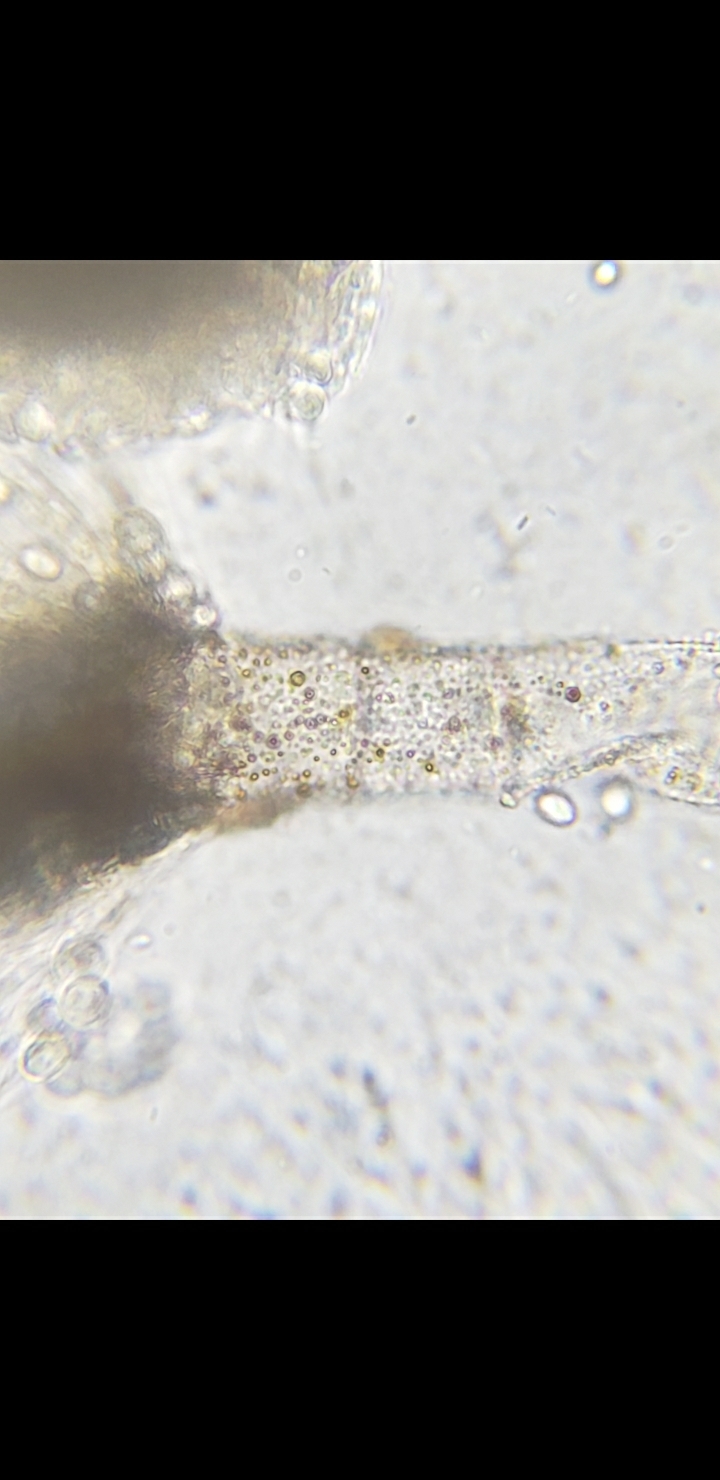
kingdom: Fungi
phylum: Ascomycota
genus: Gloiosphaera
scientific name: Gloiosphaera
